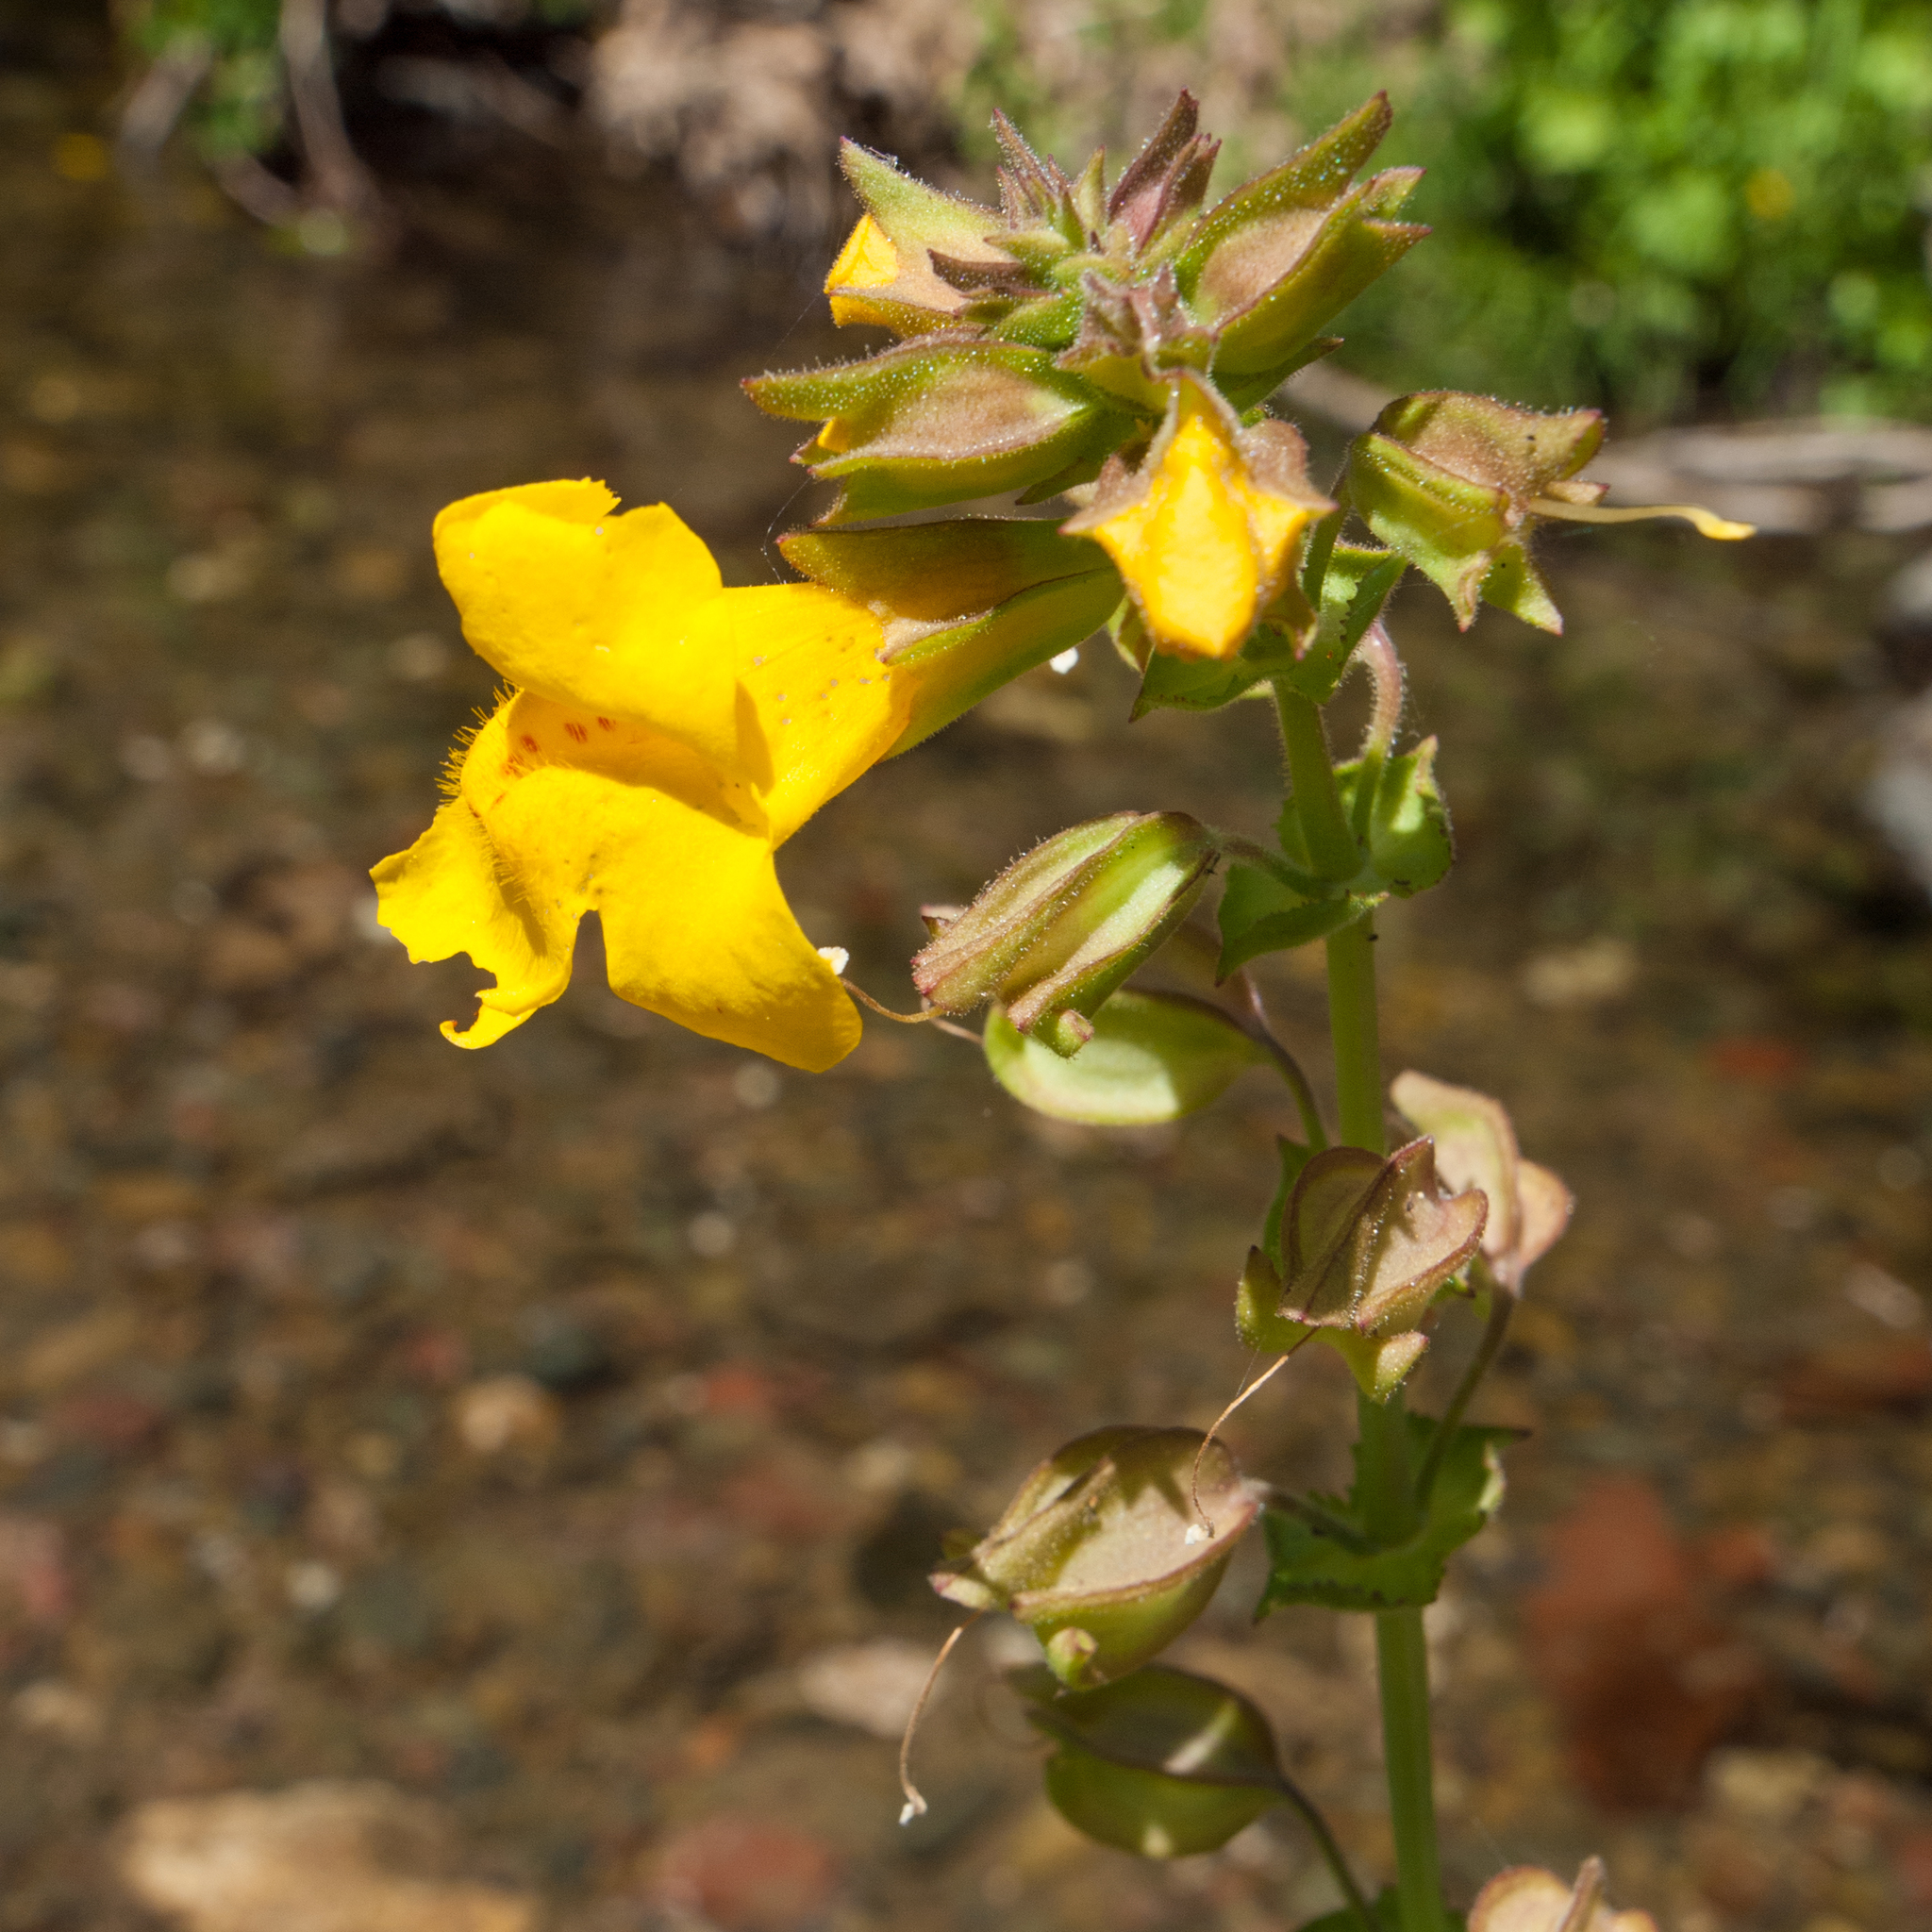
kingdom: Plantae
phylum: Tracheophyta
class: Magnoliopsida
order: Lamiales
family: Phrymaceae
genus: Erythranthe
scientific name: Erythranthe guttata
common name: Monkeyflower
